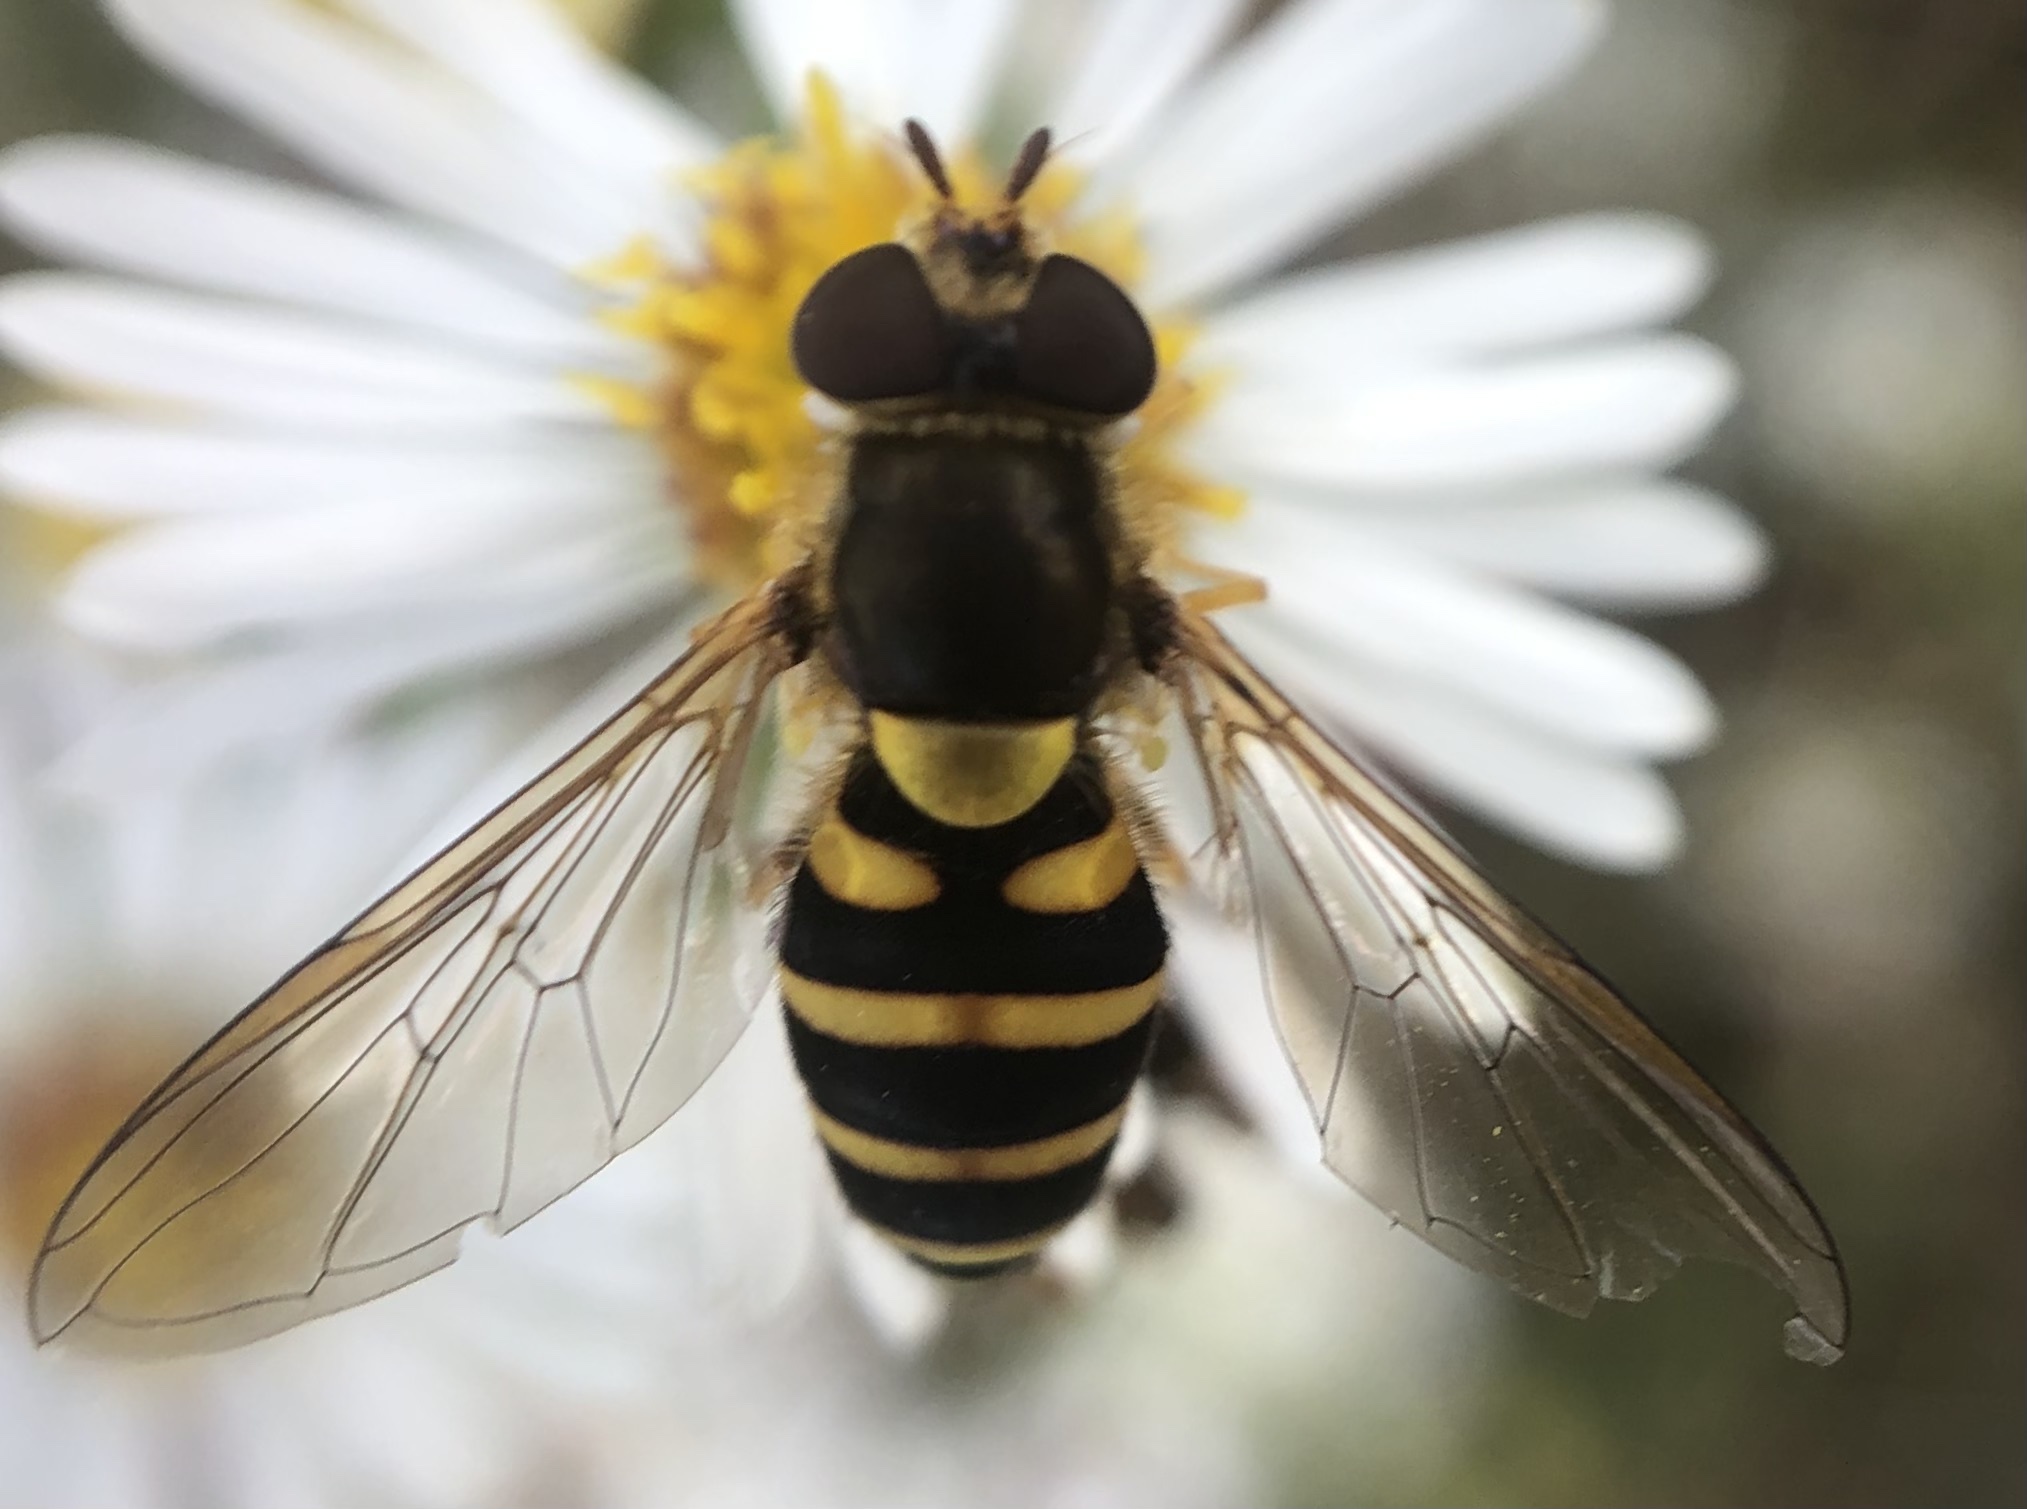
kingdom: Animalia
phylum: Arthropoda
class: Insecta
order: Diptera
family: Syrphidae
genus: Syrphus
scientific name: Syrphus
